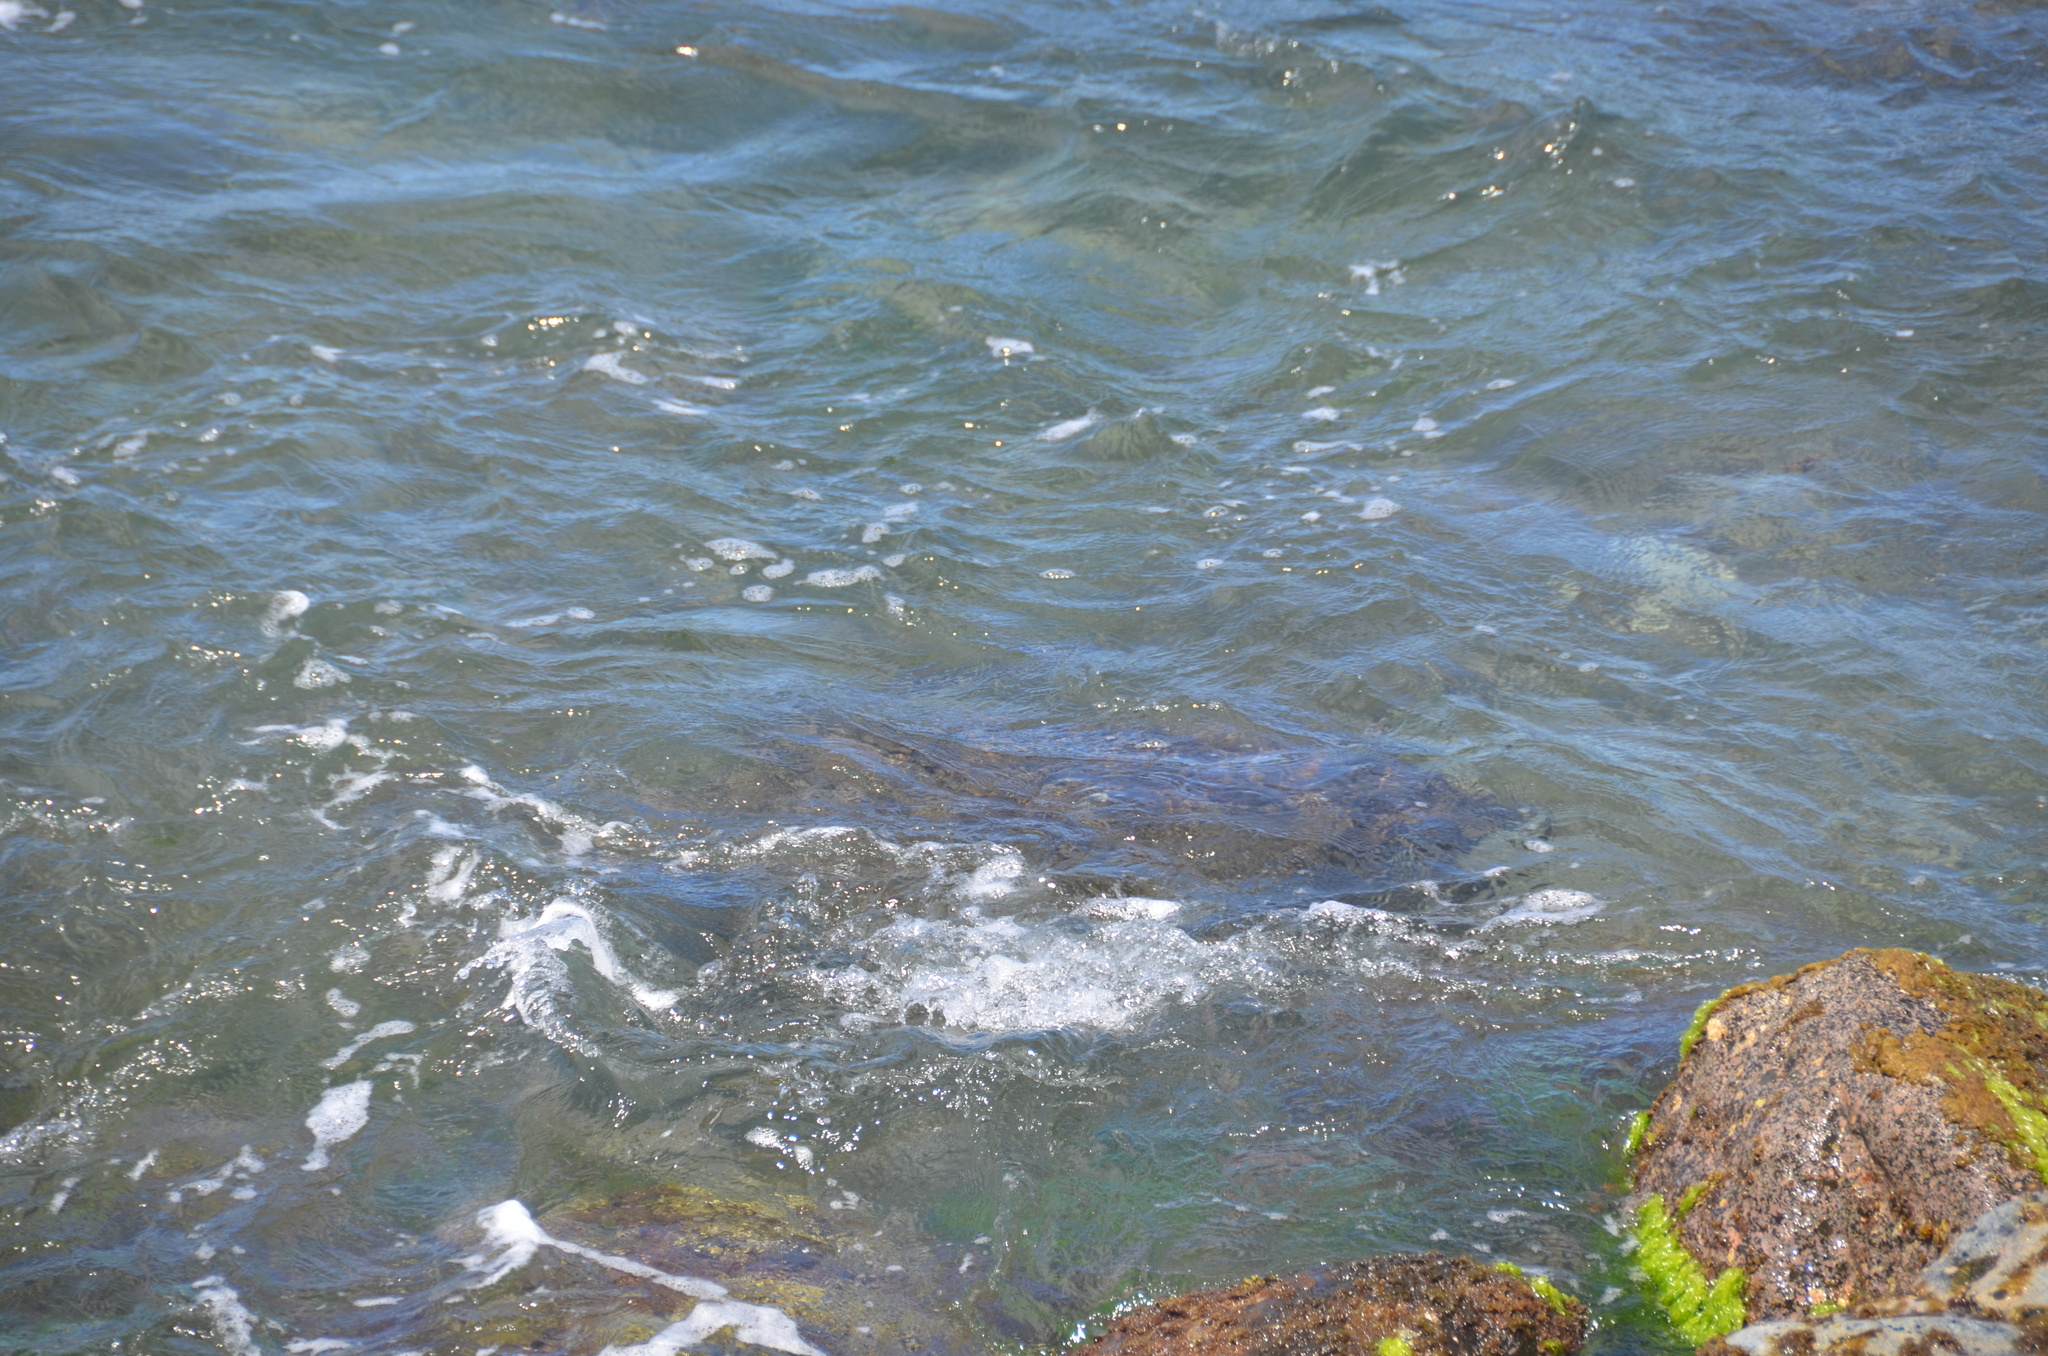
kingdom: Animalia
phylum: Chordata
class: Testudines
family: Cheloniidae
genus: Chelonia
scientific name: Chelonia mydas
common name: Green turtle
